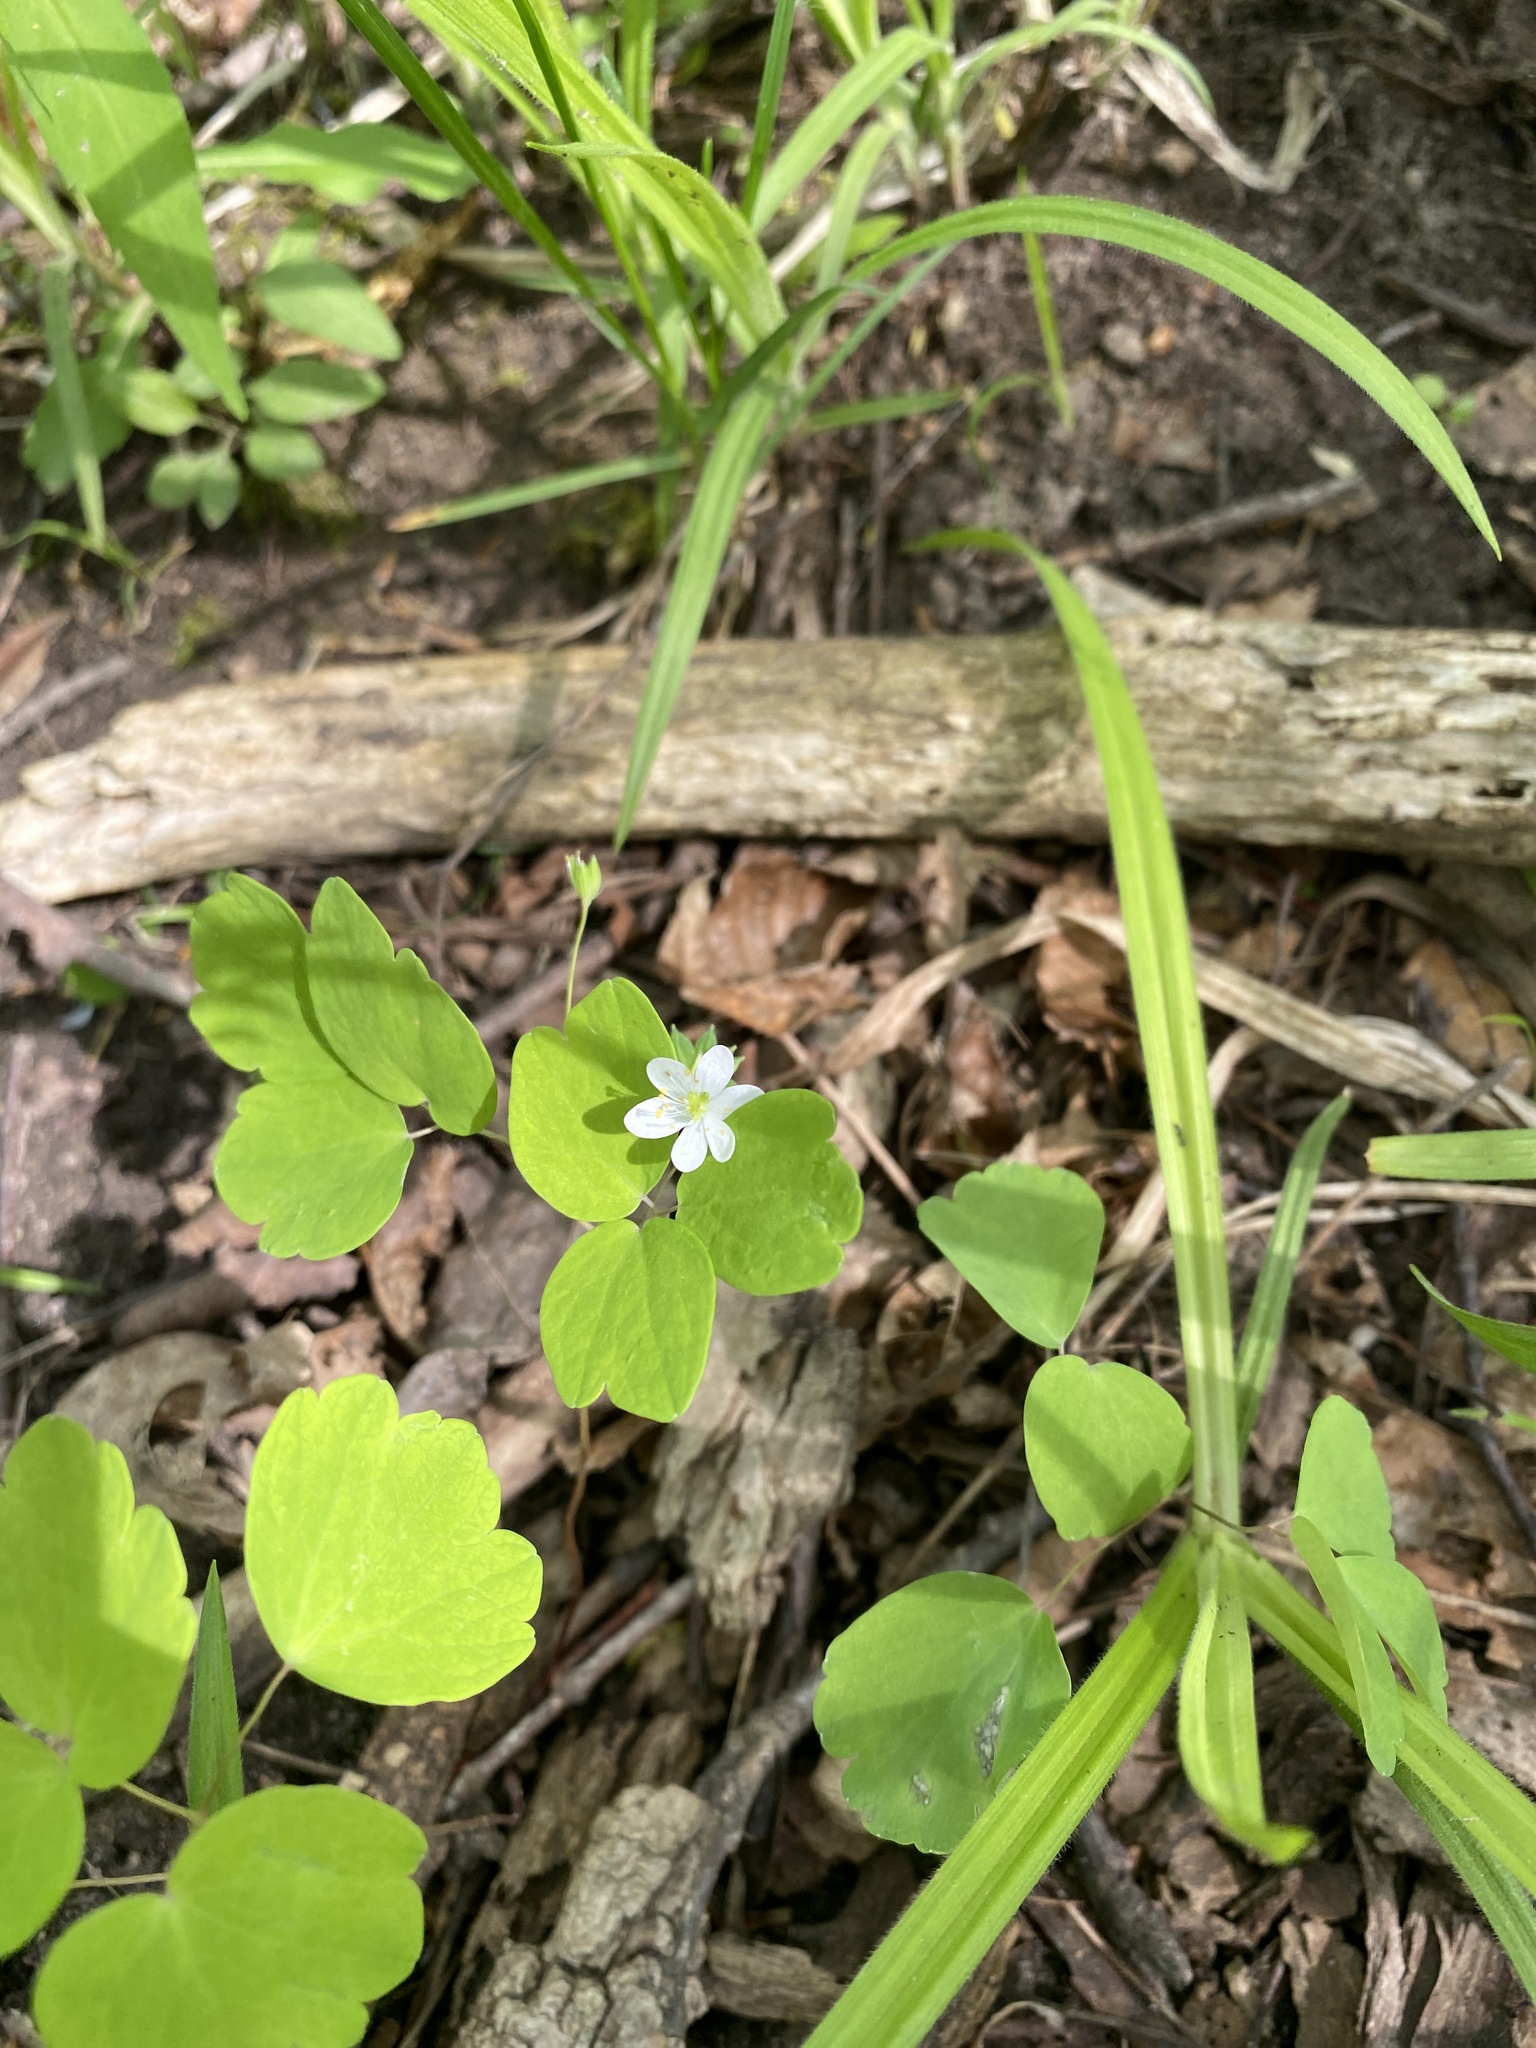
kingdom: Plantae
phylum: Tracheophyta
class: Magnoliopsida
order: Ranunculales
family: Ranunculaceae
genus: Thalictrum
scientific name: Thalictrum thalictroides
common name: Rue-anemone
